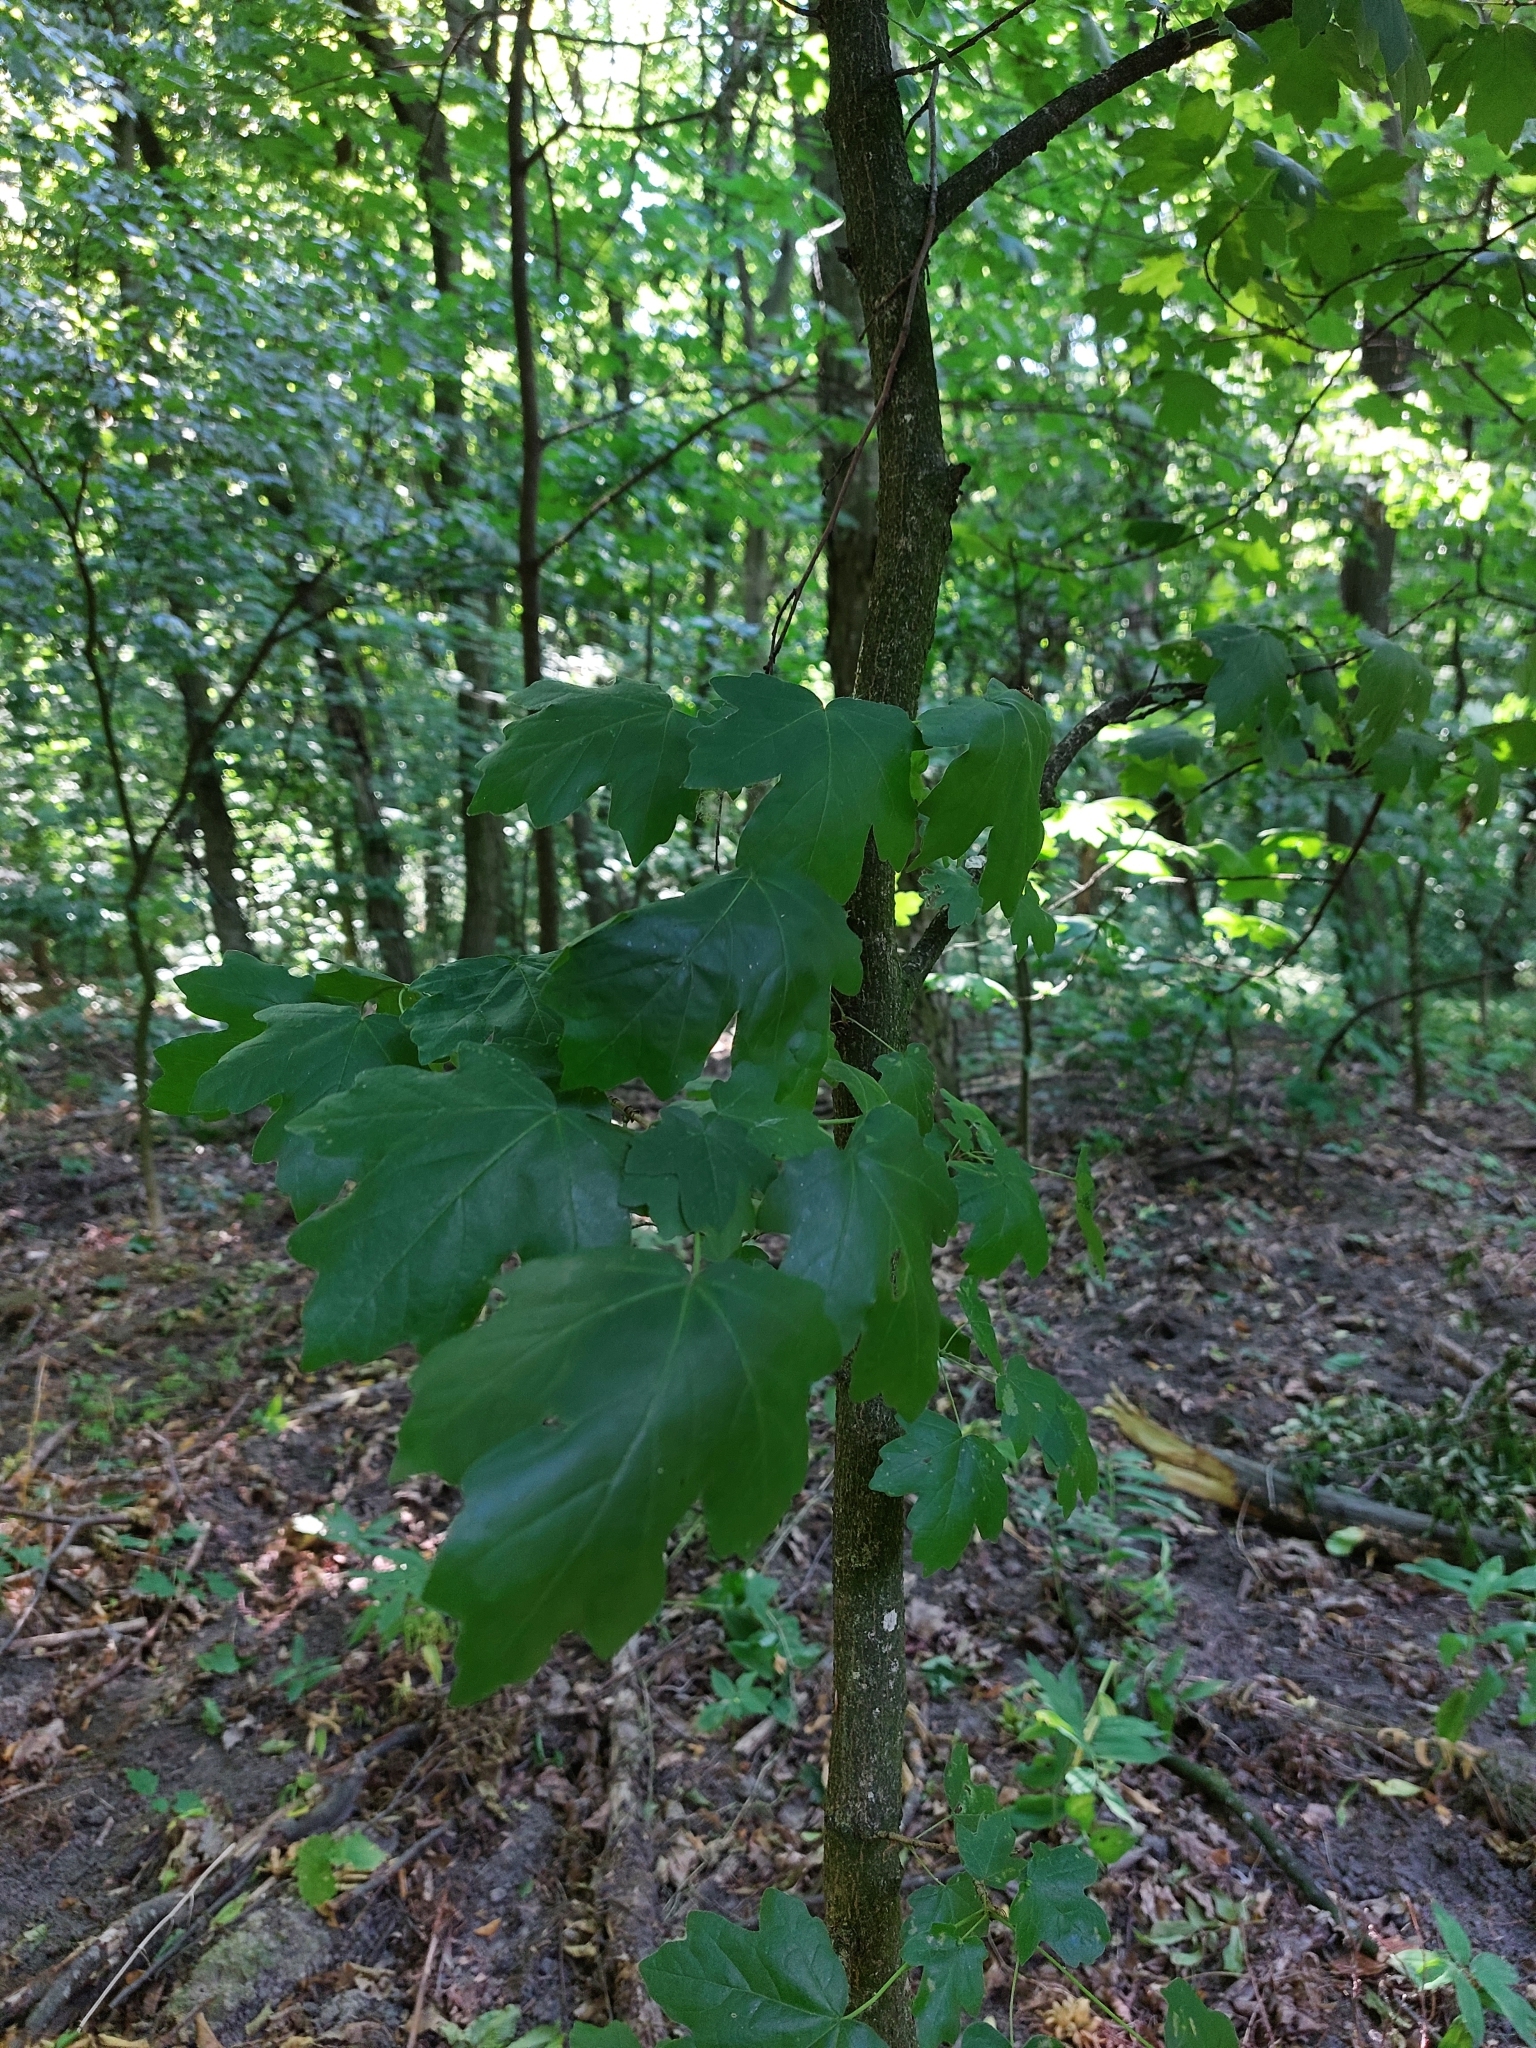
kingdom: Plantae
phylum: Tracheophyta
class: Magnoliopsida
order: Sapindales
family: Sapindaceae
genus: Acer
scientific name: Acer campestre
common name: Field maple
